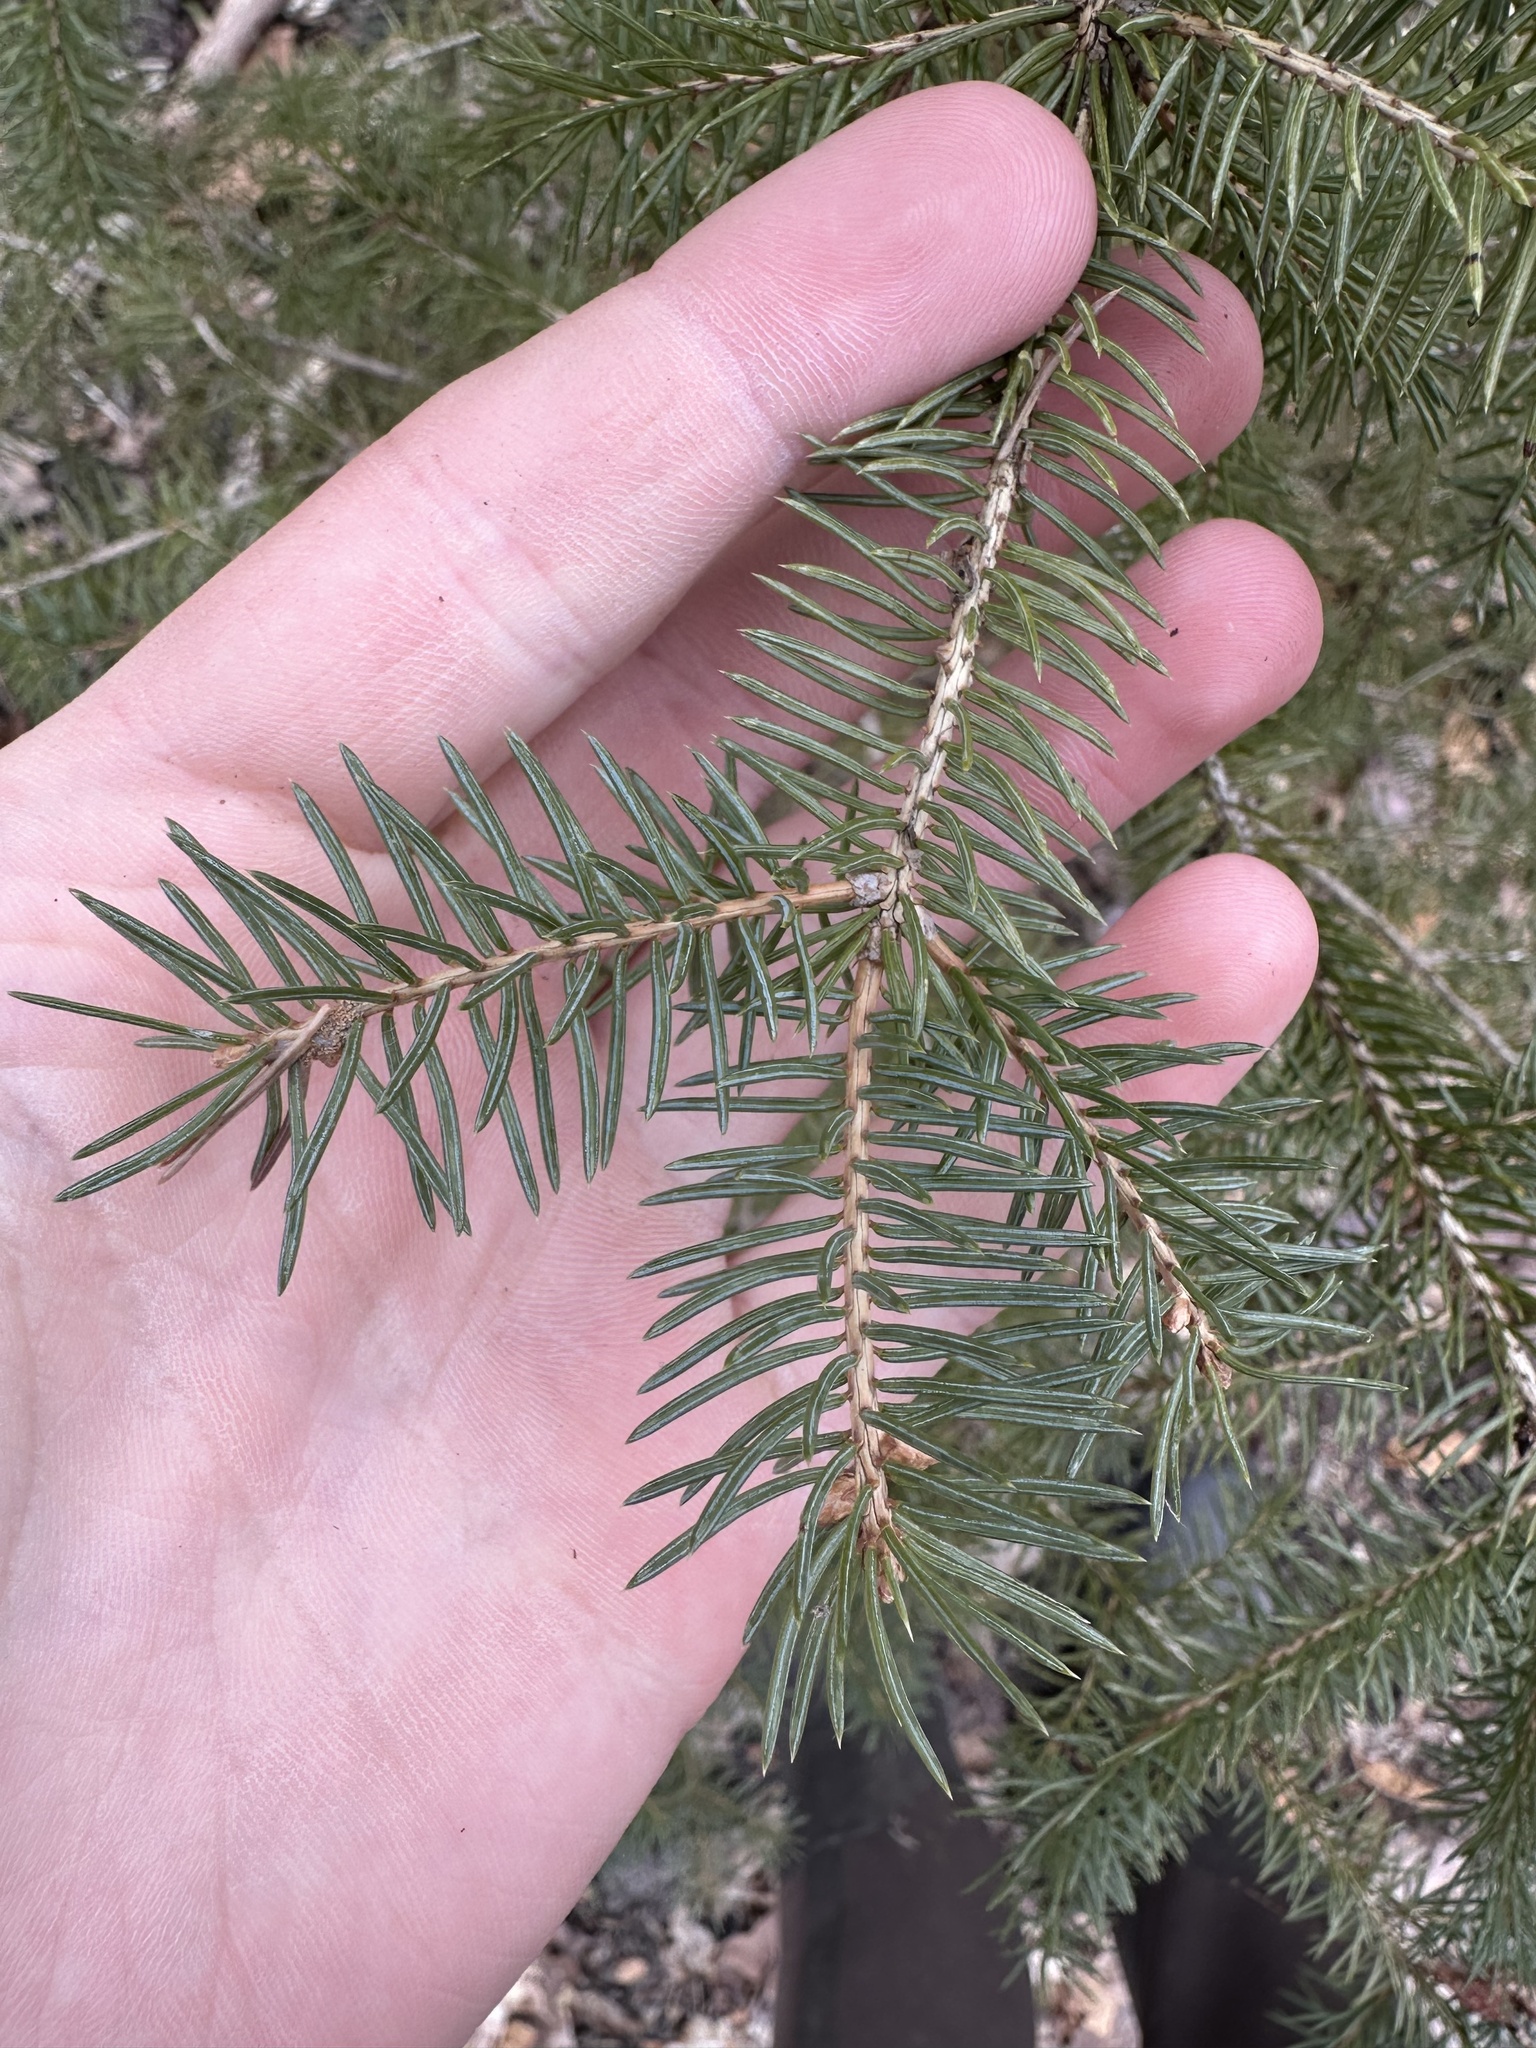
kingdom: Plantae
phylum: Tracheophyta
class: Pinopsida
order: Pinales
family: Pinaceae
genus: Picea
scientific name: Picea glauca
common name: White spruce
